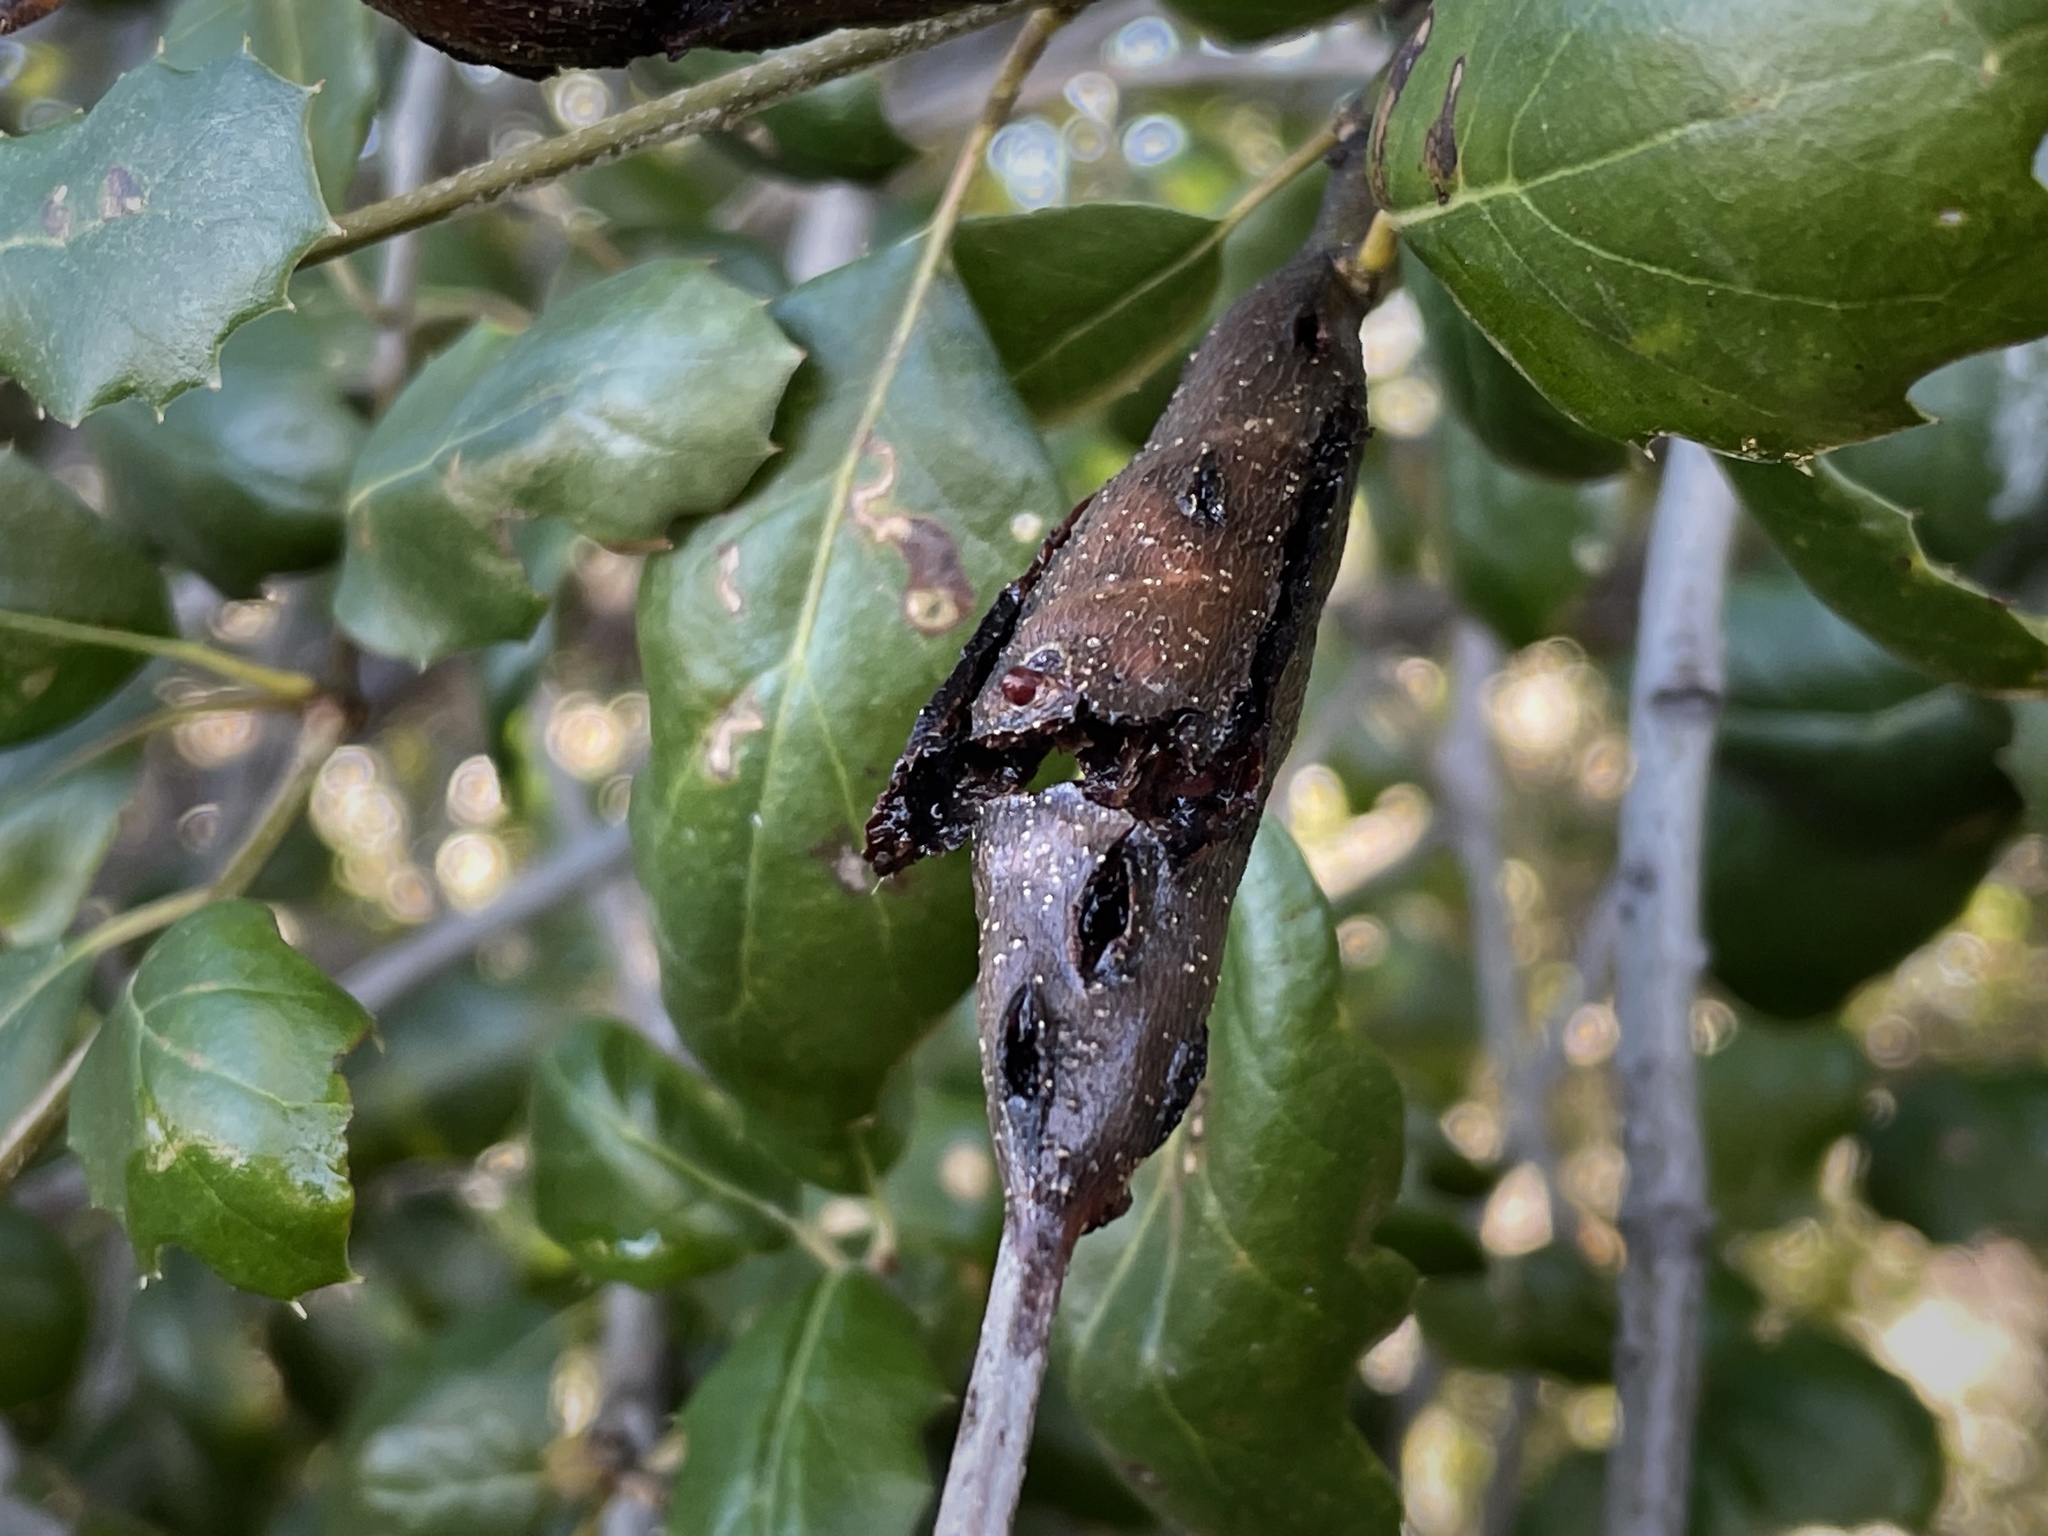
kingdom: Animalia
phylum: Arthropoda
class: Insecta
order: Hymenoptera
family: Cynipidae
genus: Callirhytis
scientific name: Callirhytis
